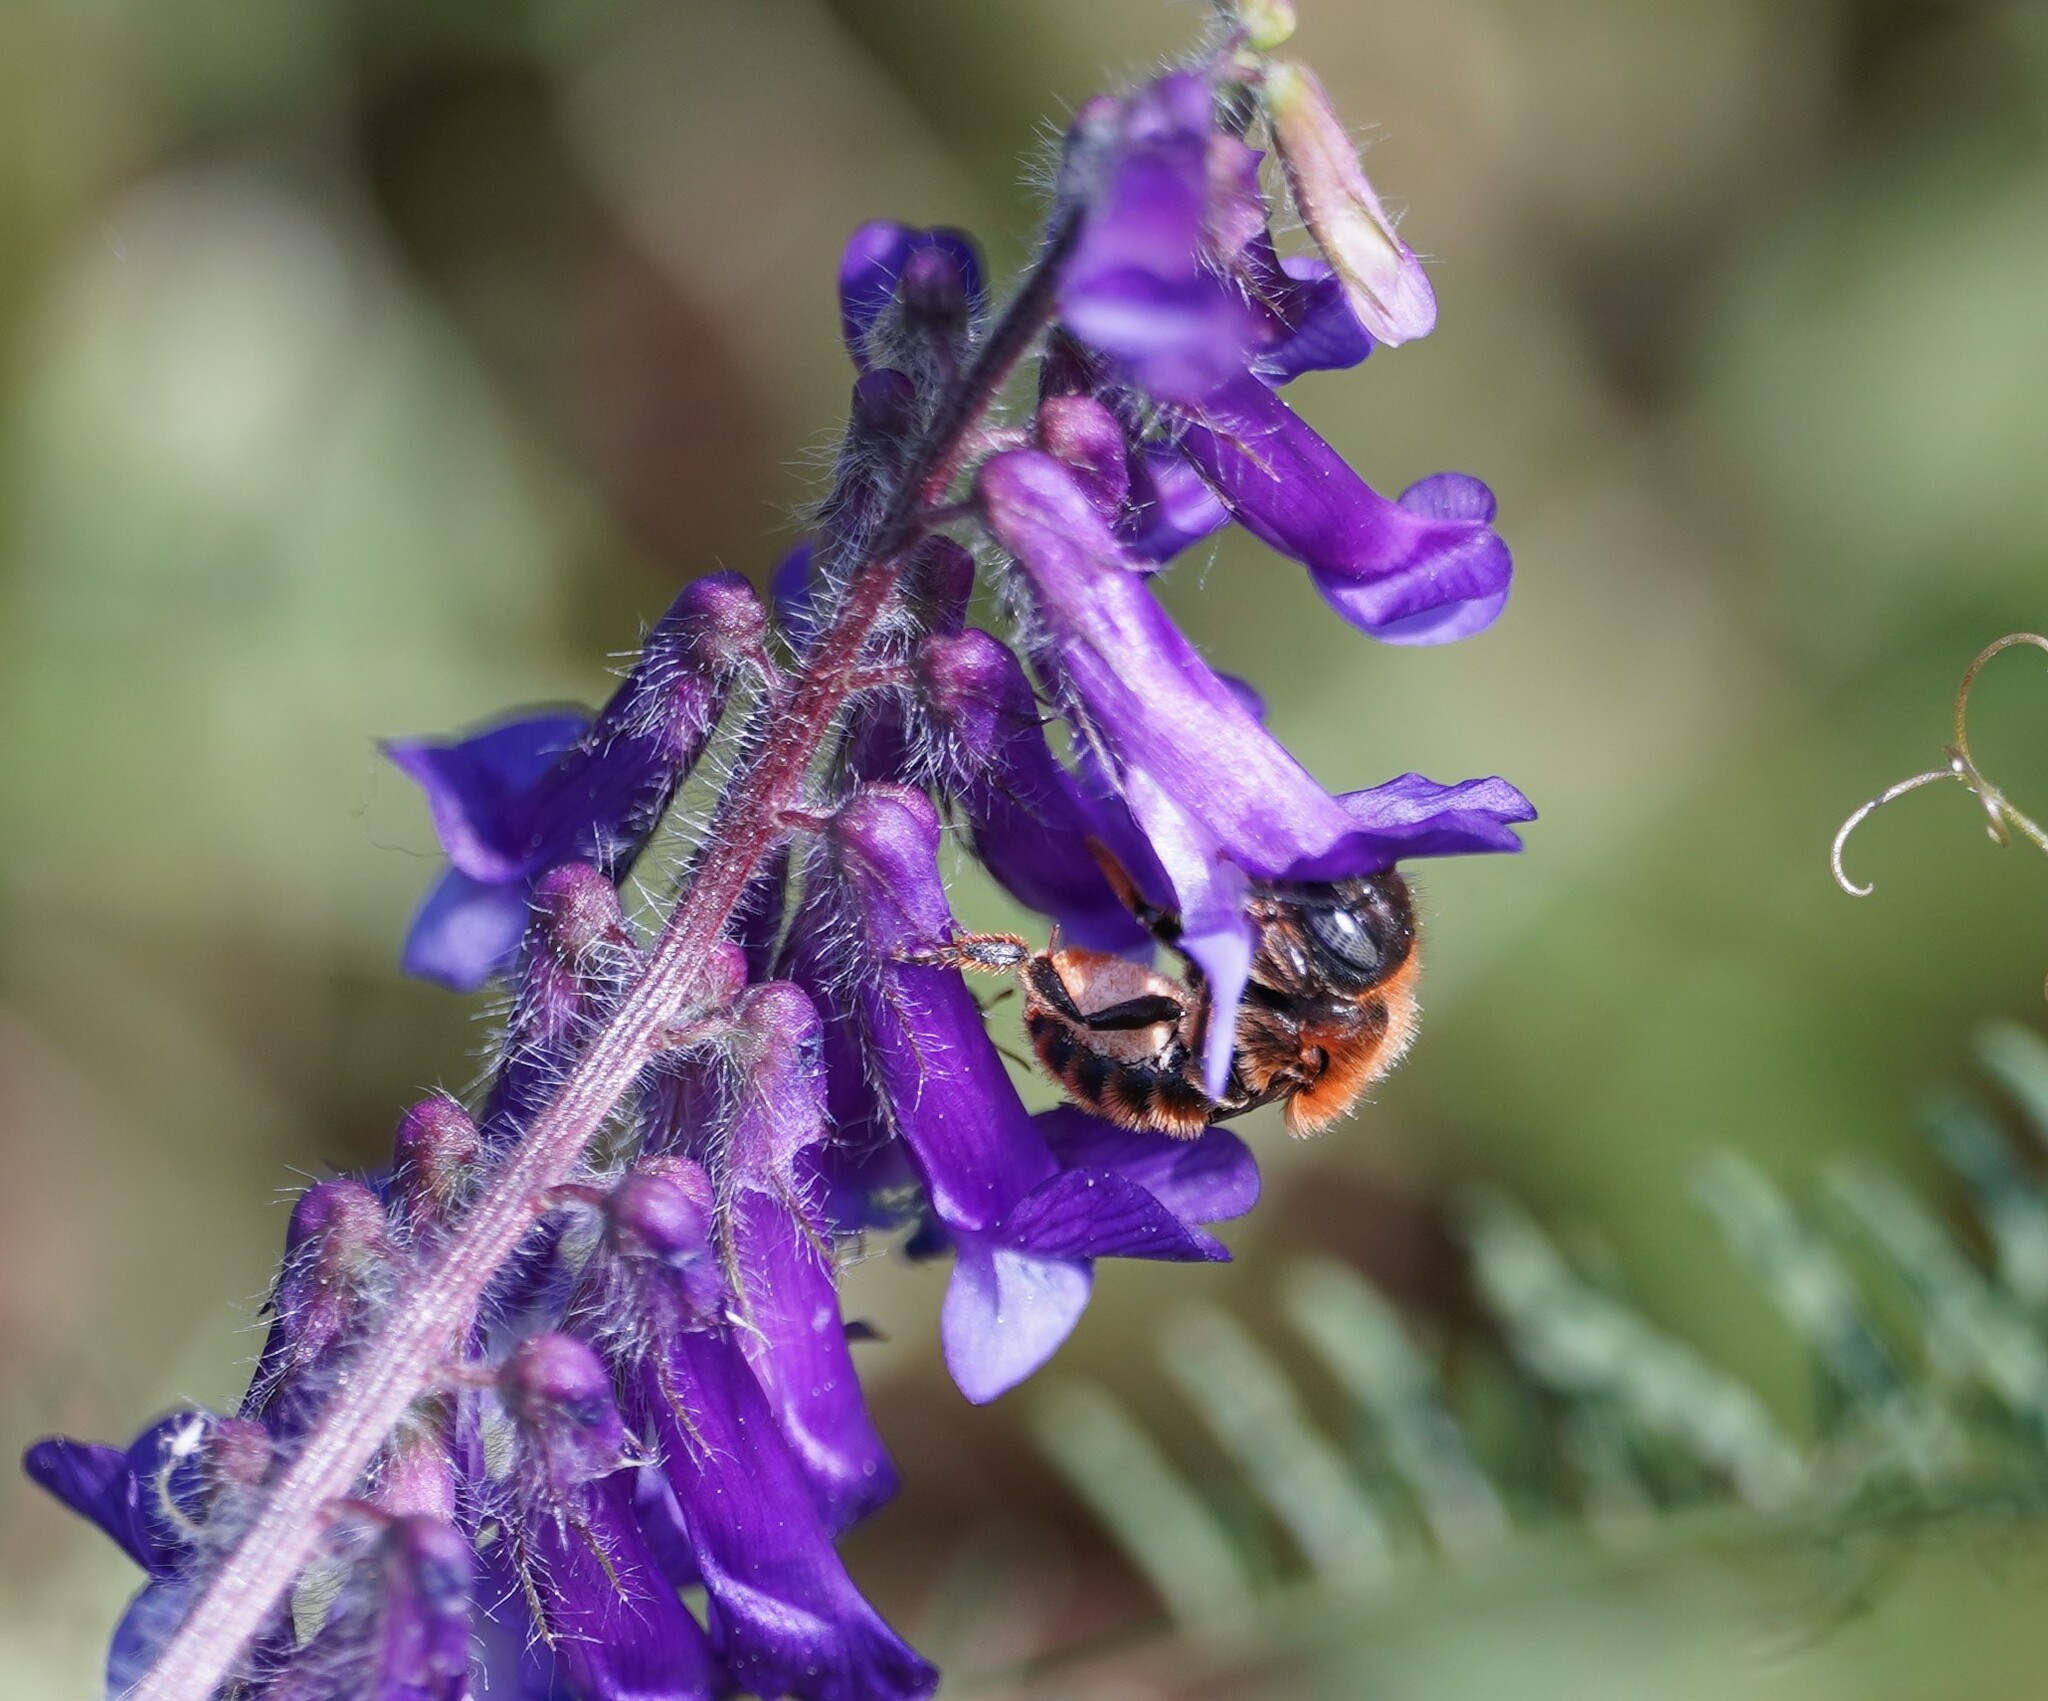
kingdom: Animalia
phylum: Arthropoda
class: Insecta
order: Hymenoptera
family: Megachilidae
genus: Osmia
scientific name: Osmia aurulenta
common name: Gold-fringed mason bee
